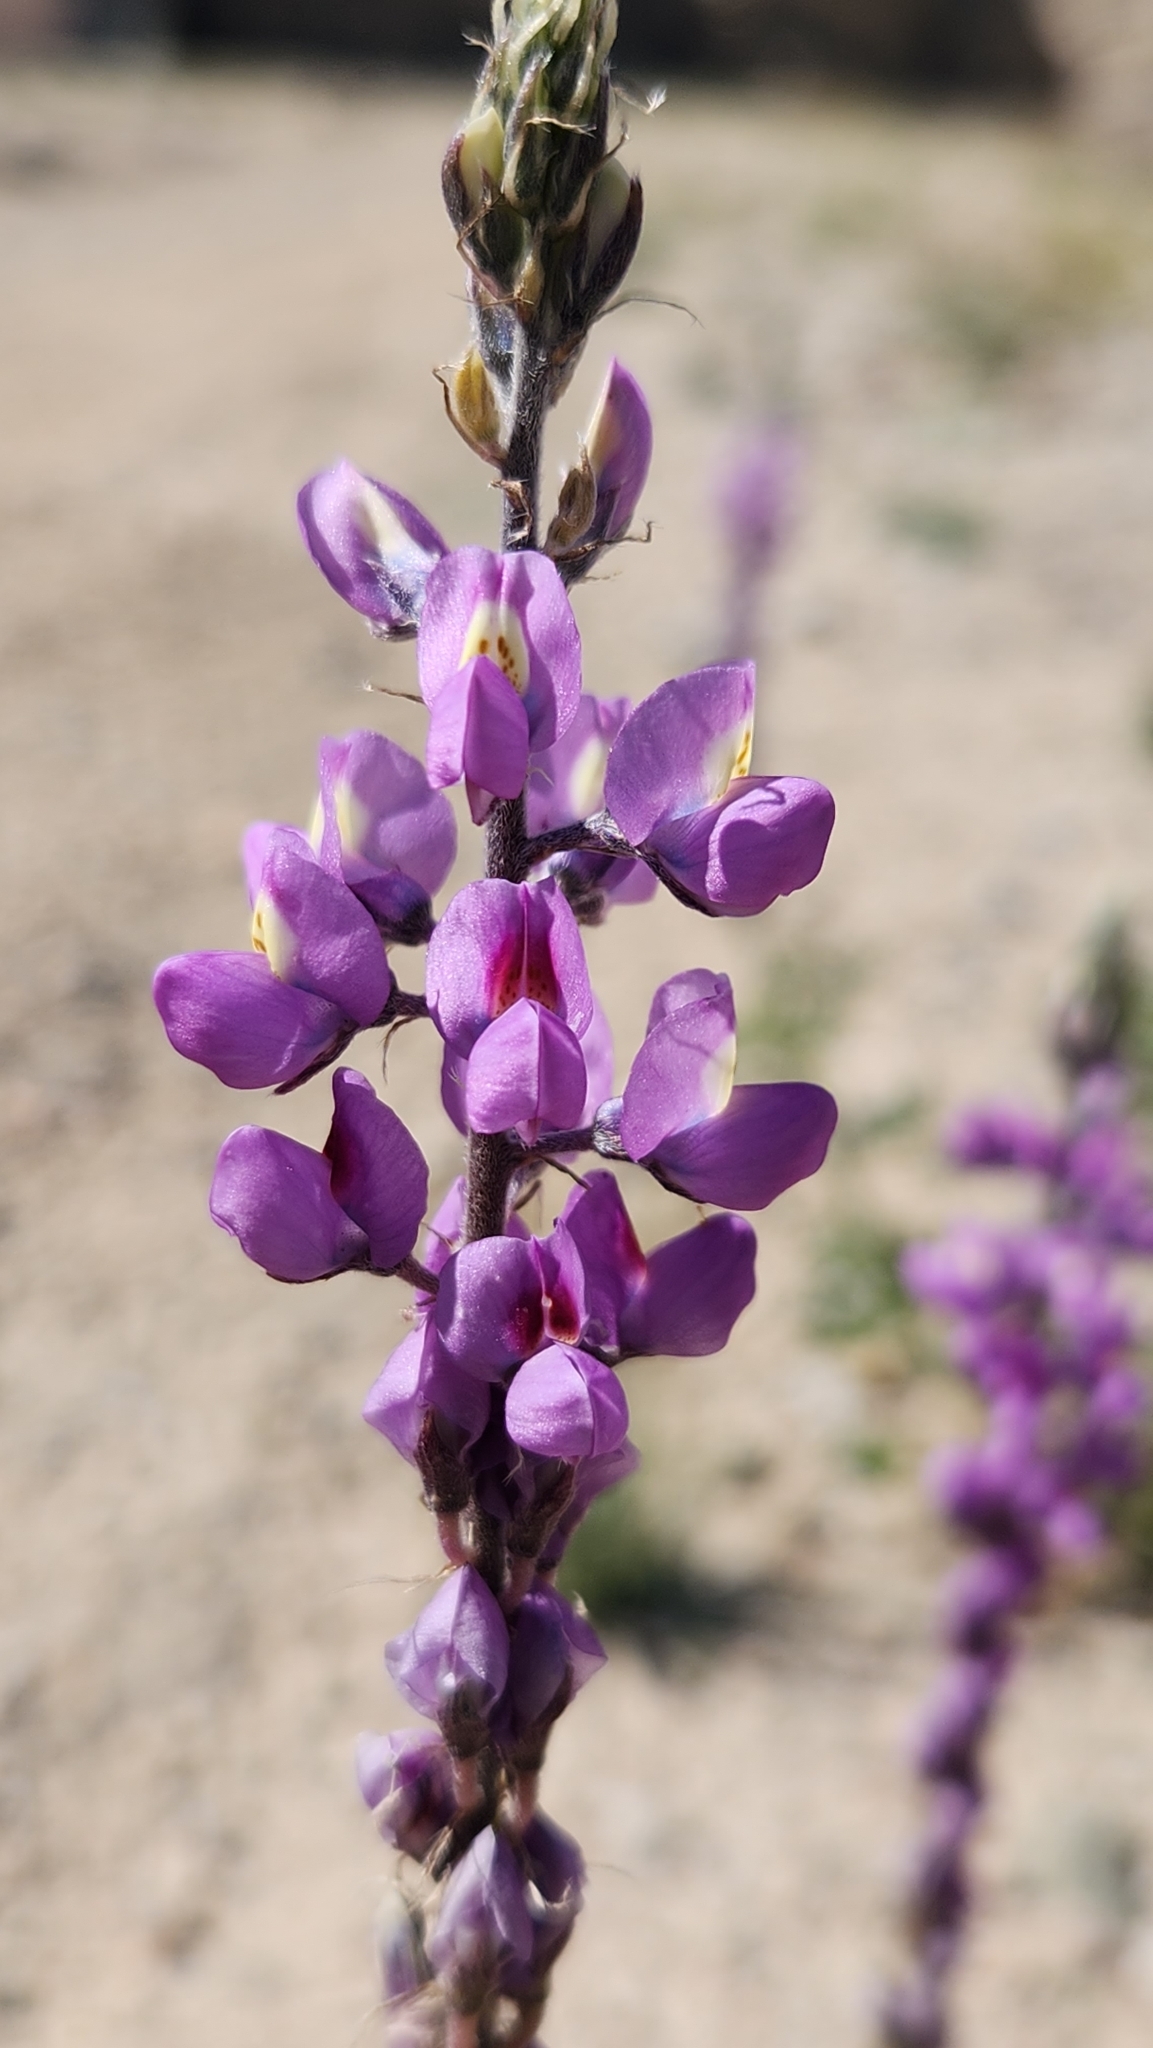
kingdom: Plantae
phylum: Tracheophyta
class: Magnoliopsida
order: Fabales
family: Fabaceae
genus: Lupinus
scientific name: Lupinus arizonicus
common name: Arizona lupine
